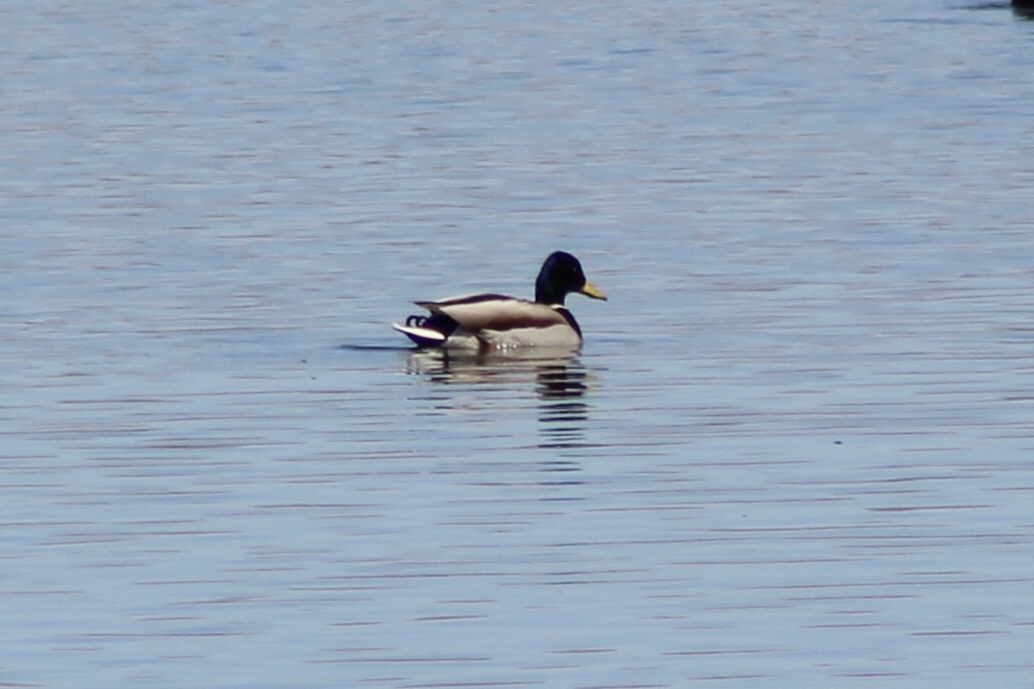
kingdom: Animalia
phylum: Chordata
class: Aves
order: Anseriformes
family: Anatidae
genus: Anas
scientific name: Anas platyrhynchos
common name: Mallard
